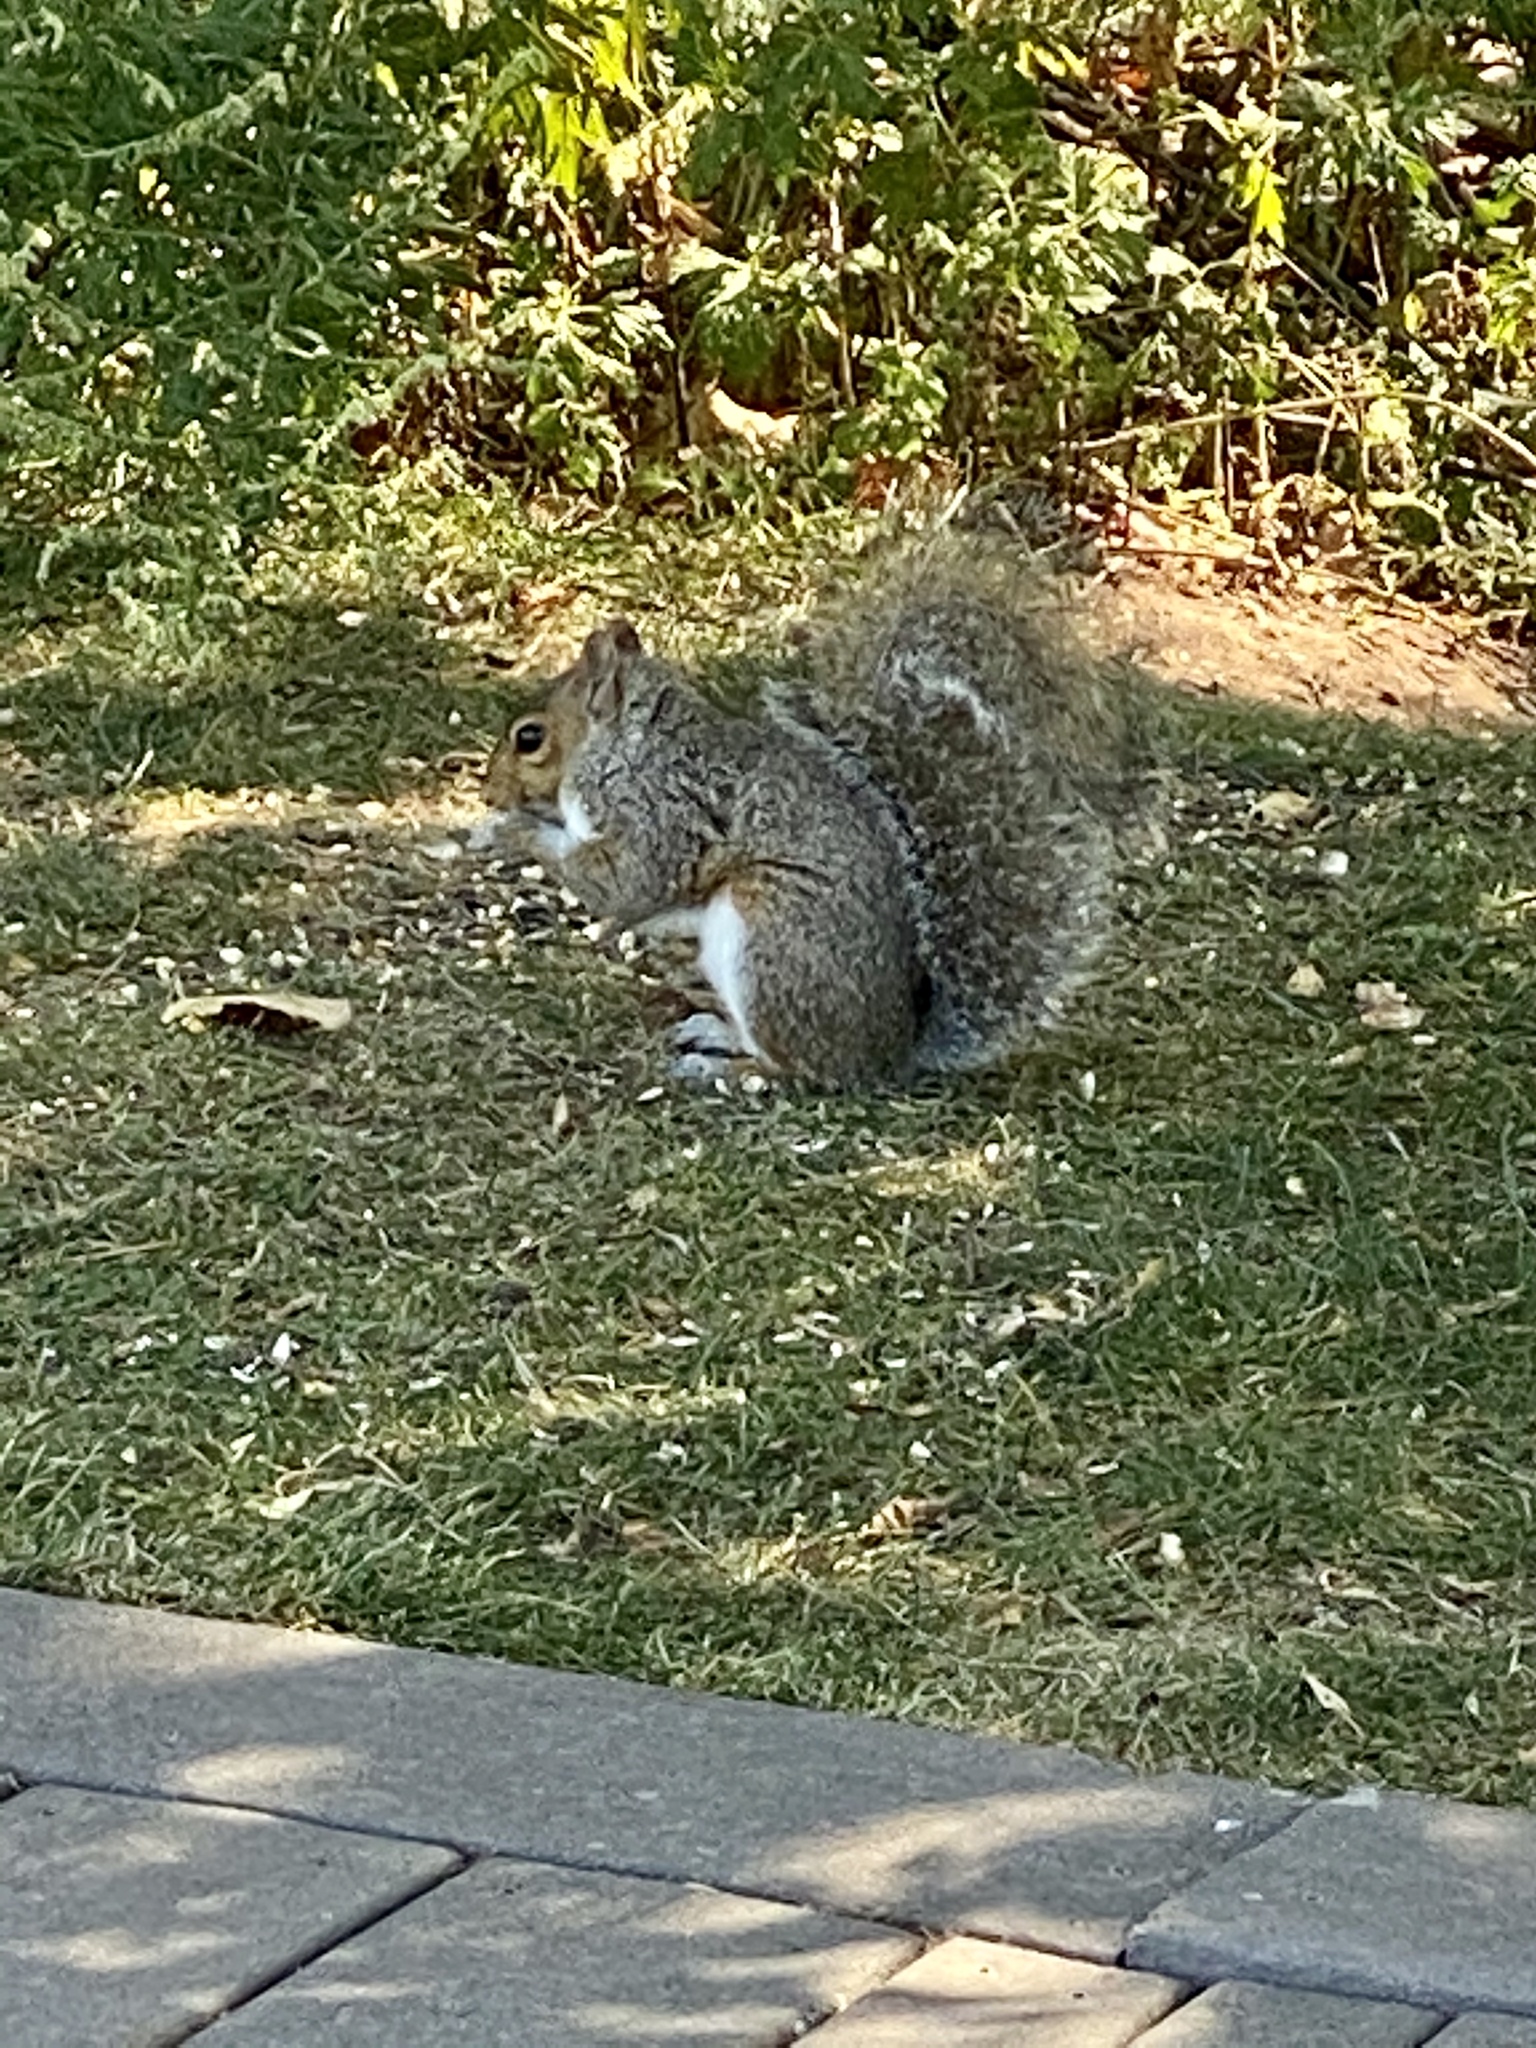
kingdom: Animalia
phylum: Chordata
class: Mammalia
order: Rodentia
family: Sciuridae
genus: Sciurus
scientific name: Sciurus carolinensis
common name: Eastern gray squirrel
